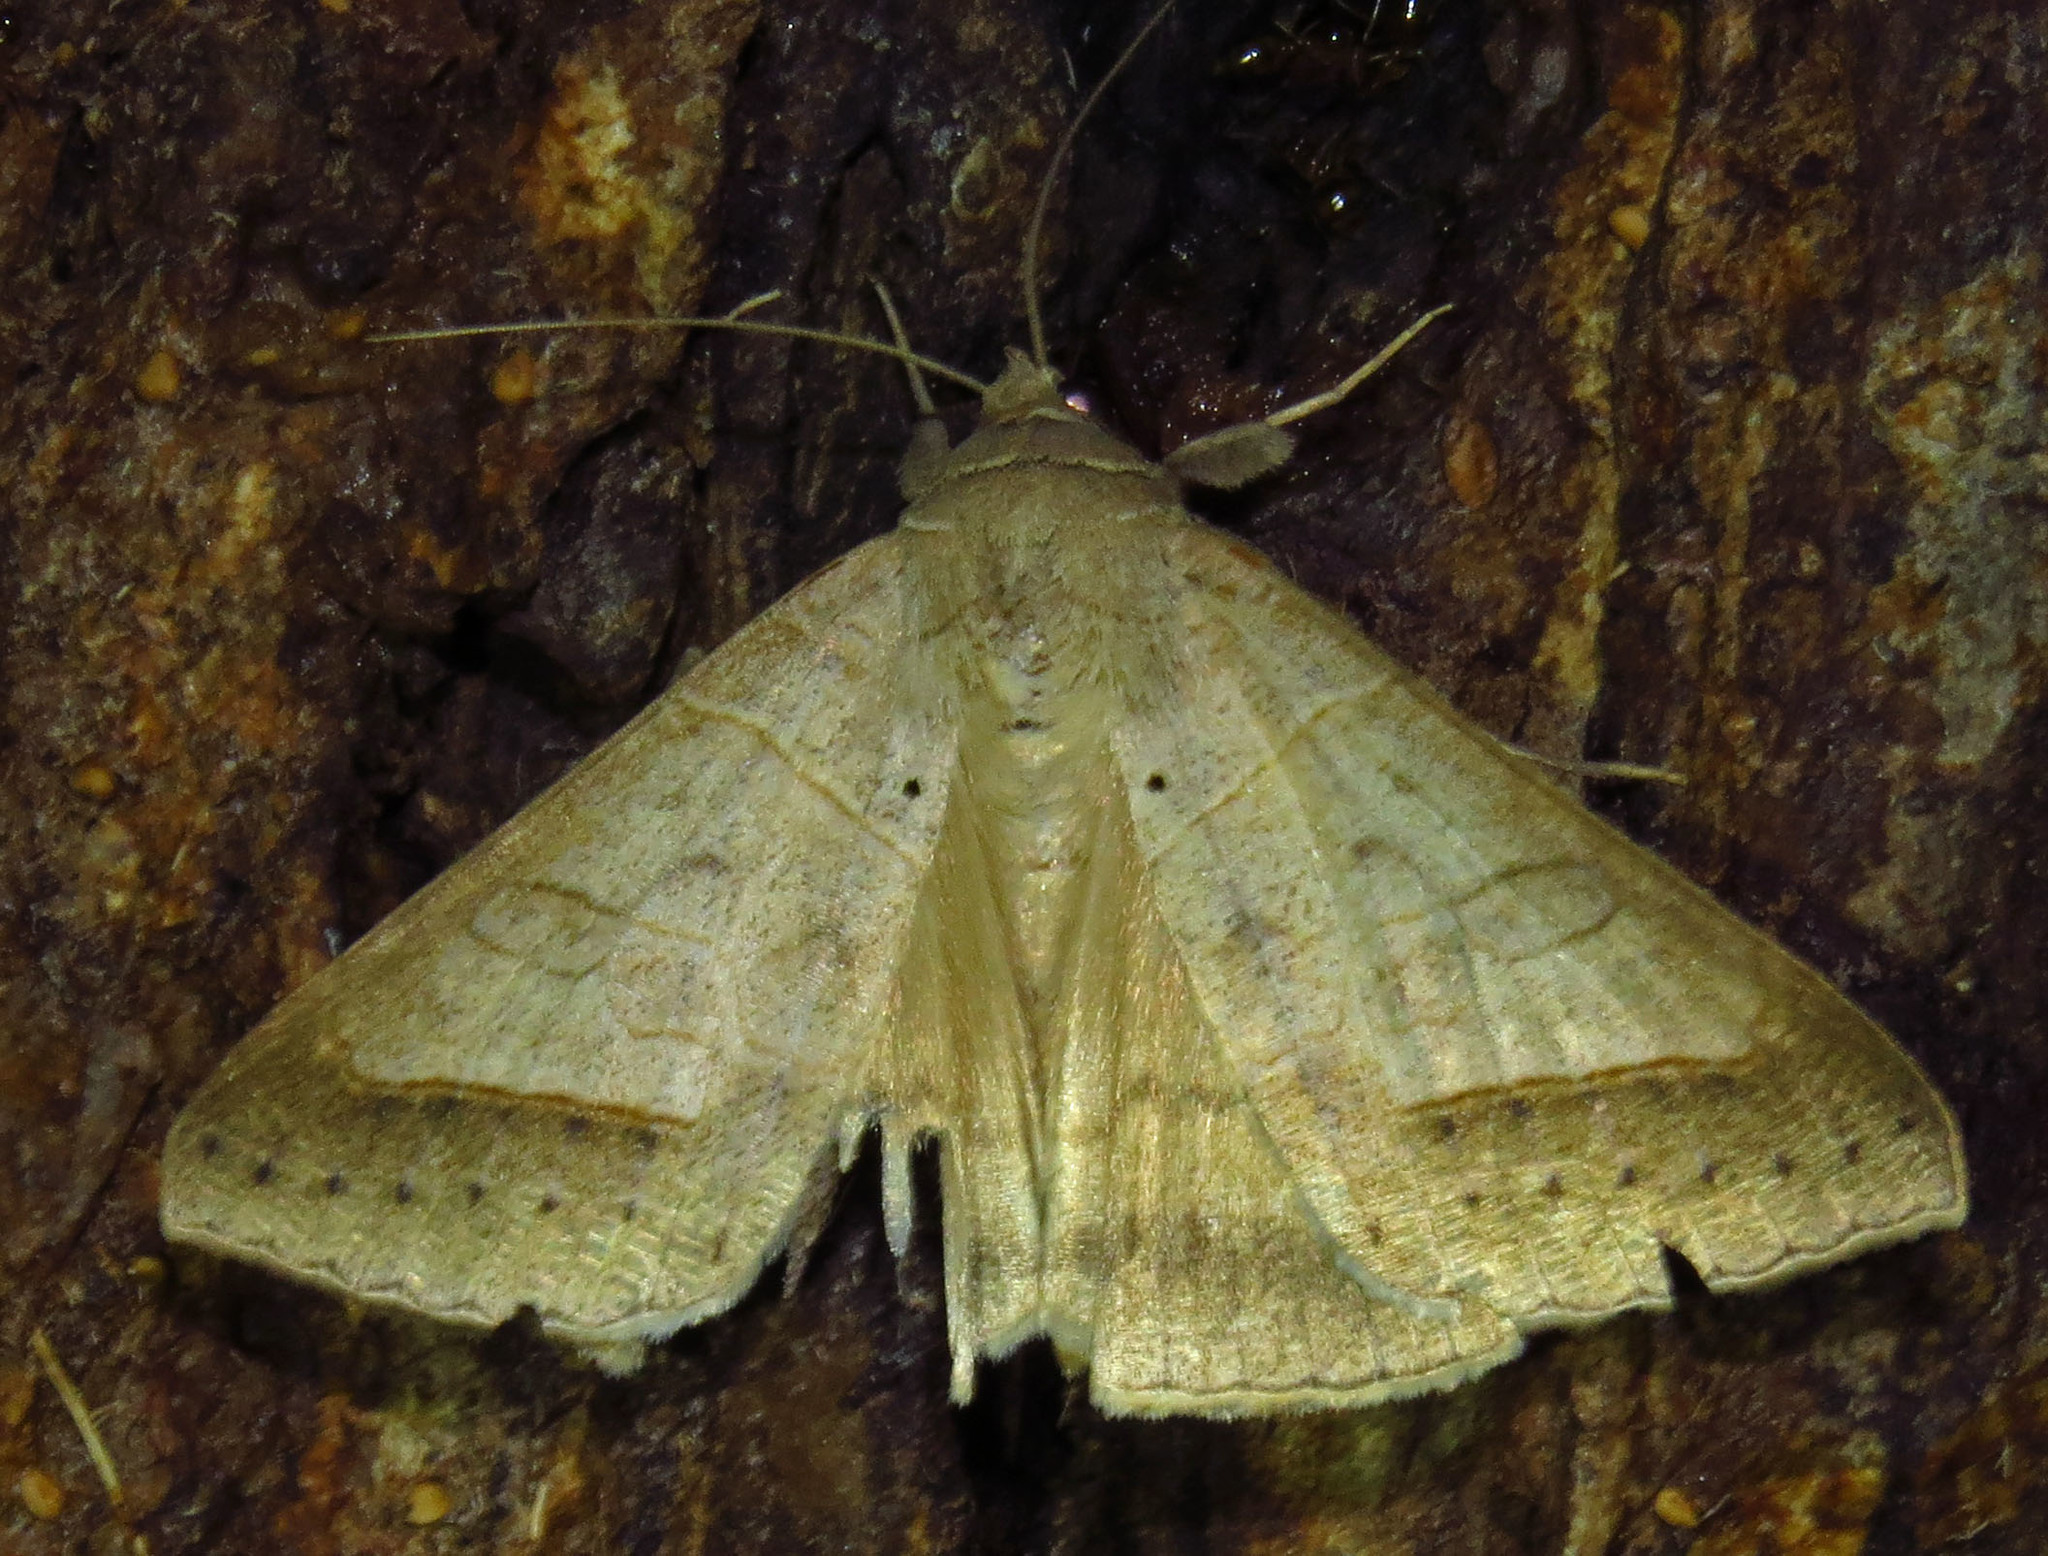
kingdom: Animalia
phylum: Arthropoda
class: Insecta
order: Lepidoptera
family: Erebidae
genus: Mocis
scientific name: Mocis marcida
